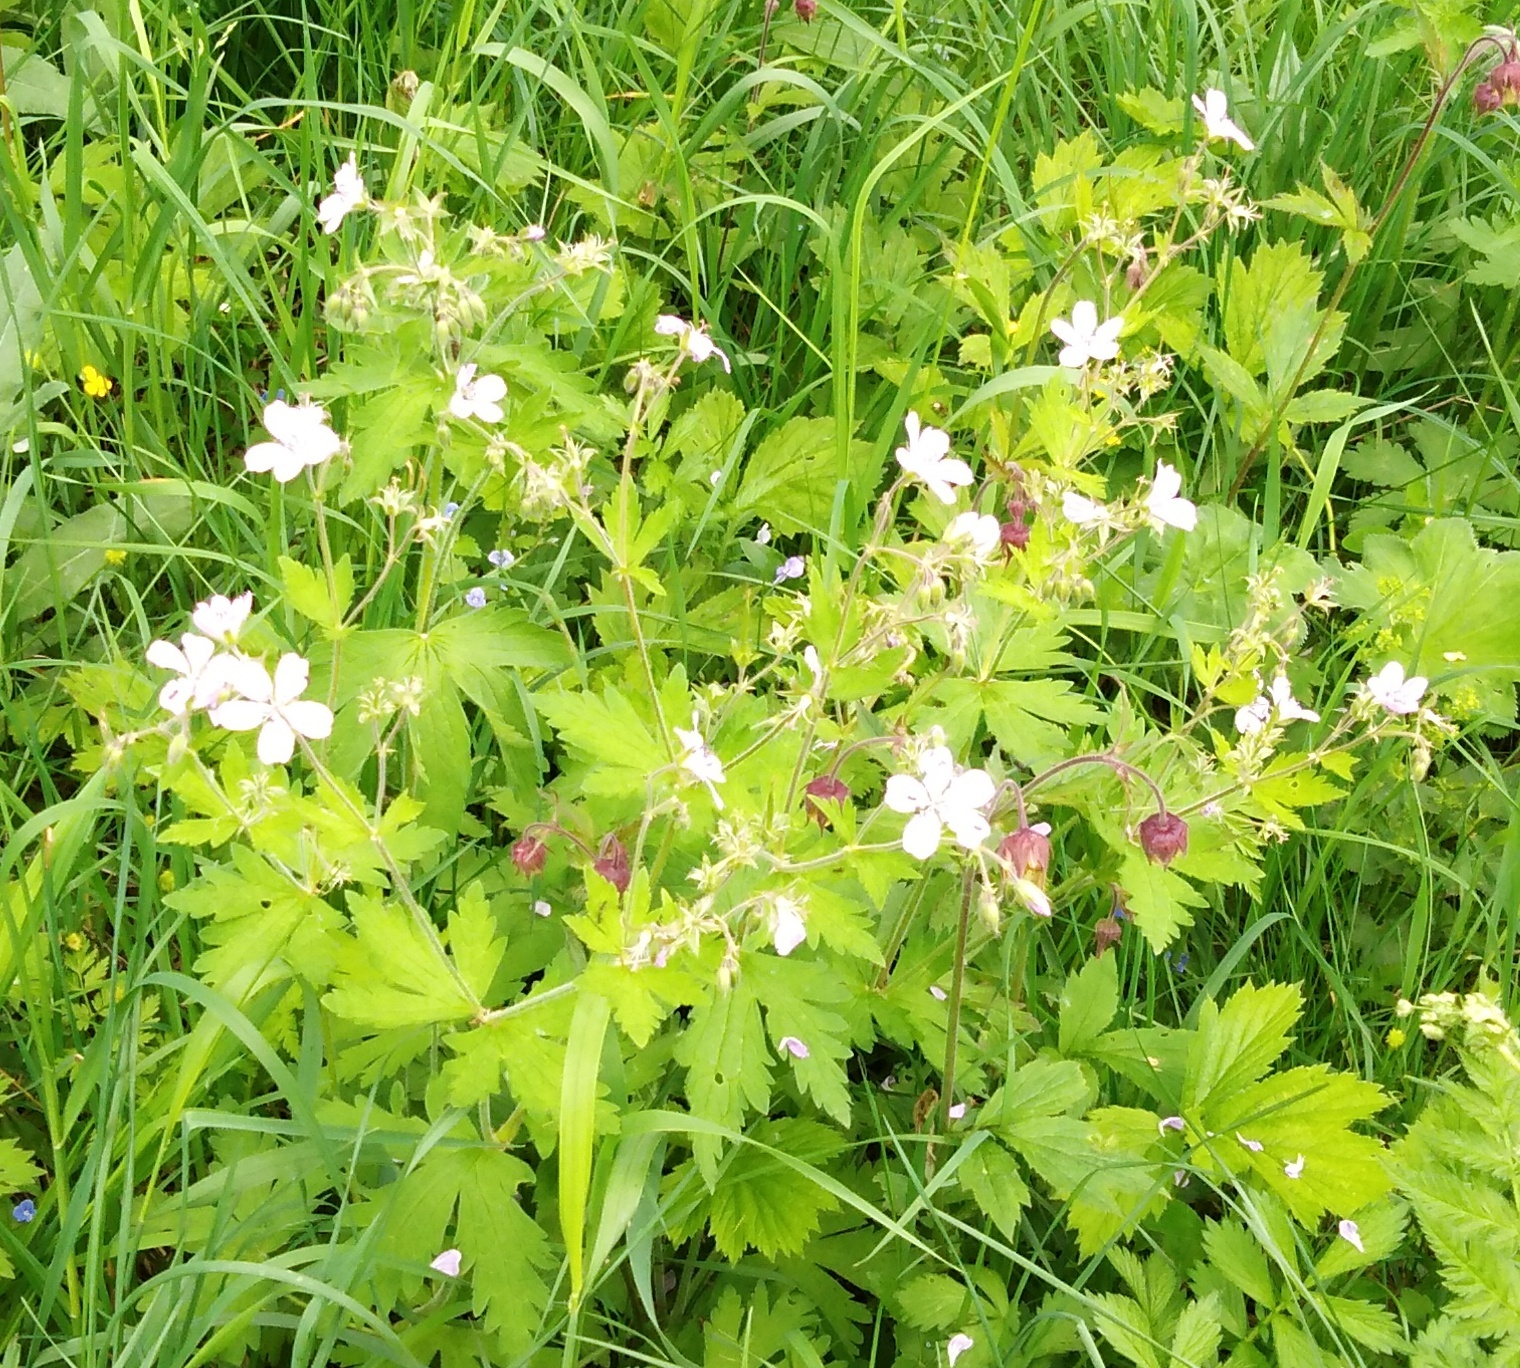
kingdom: Plantae
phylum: Tracheophyta
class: Magnoliopsida
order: Geraniales
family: Geraniaceae
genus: Geranium
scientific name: Geranium sylvaticum
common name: Wood crane's-bill
